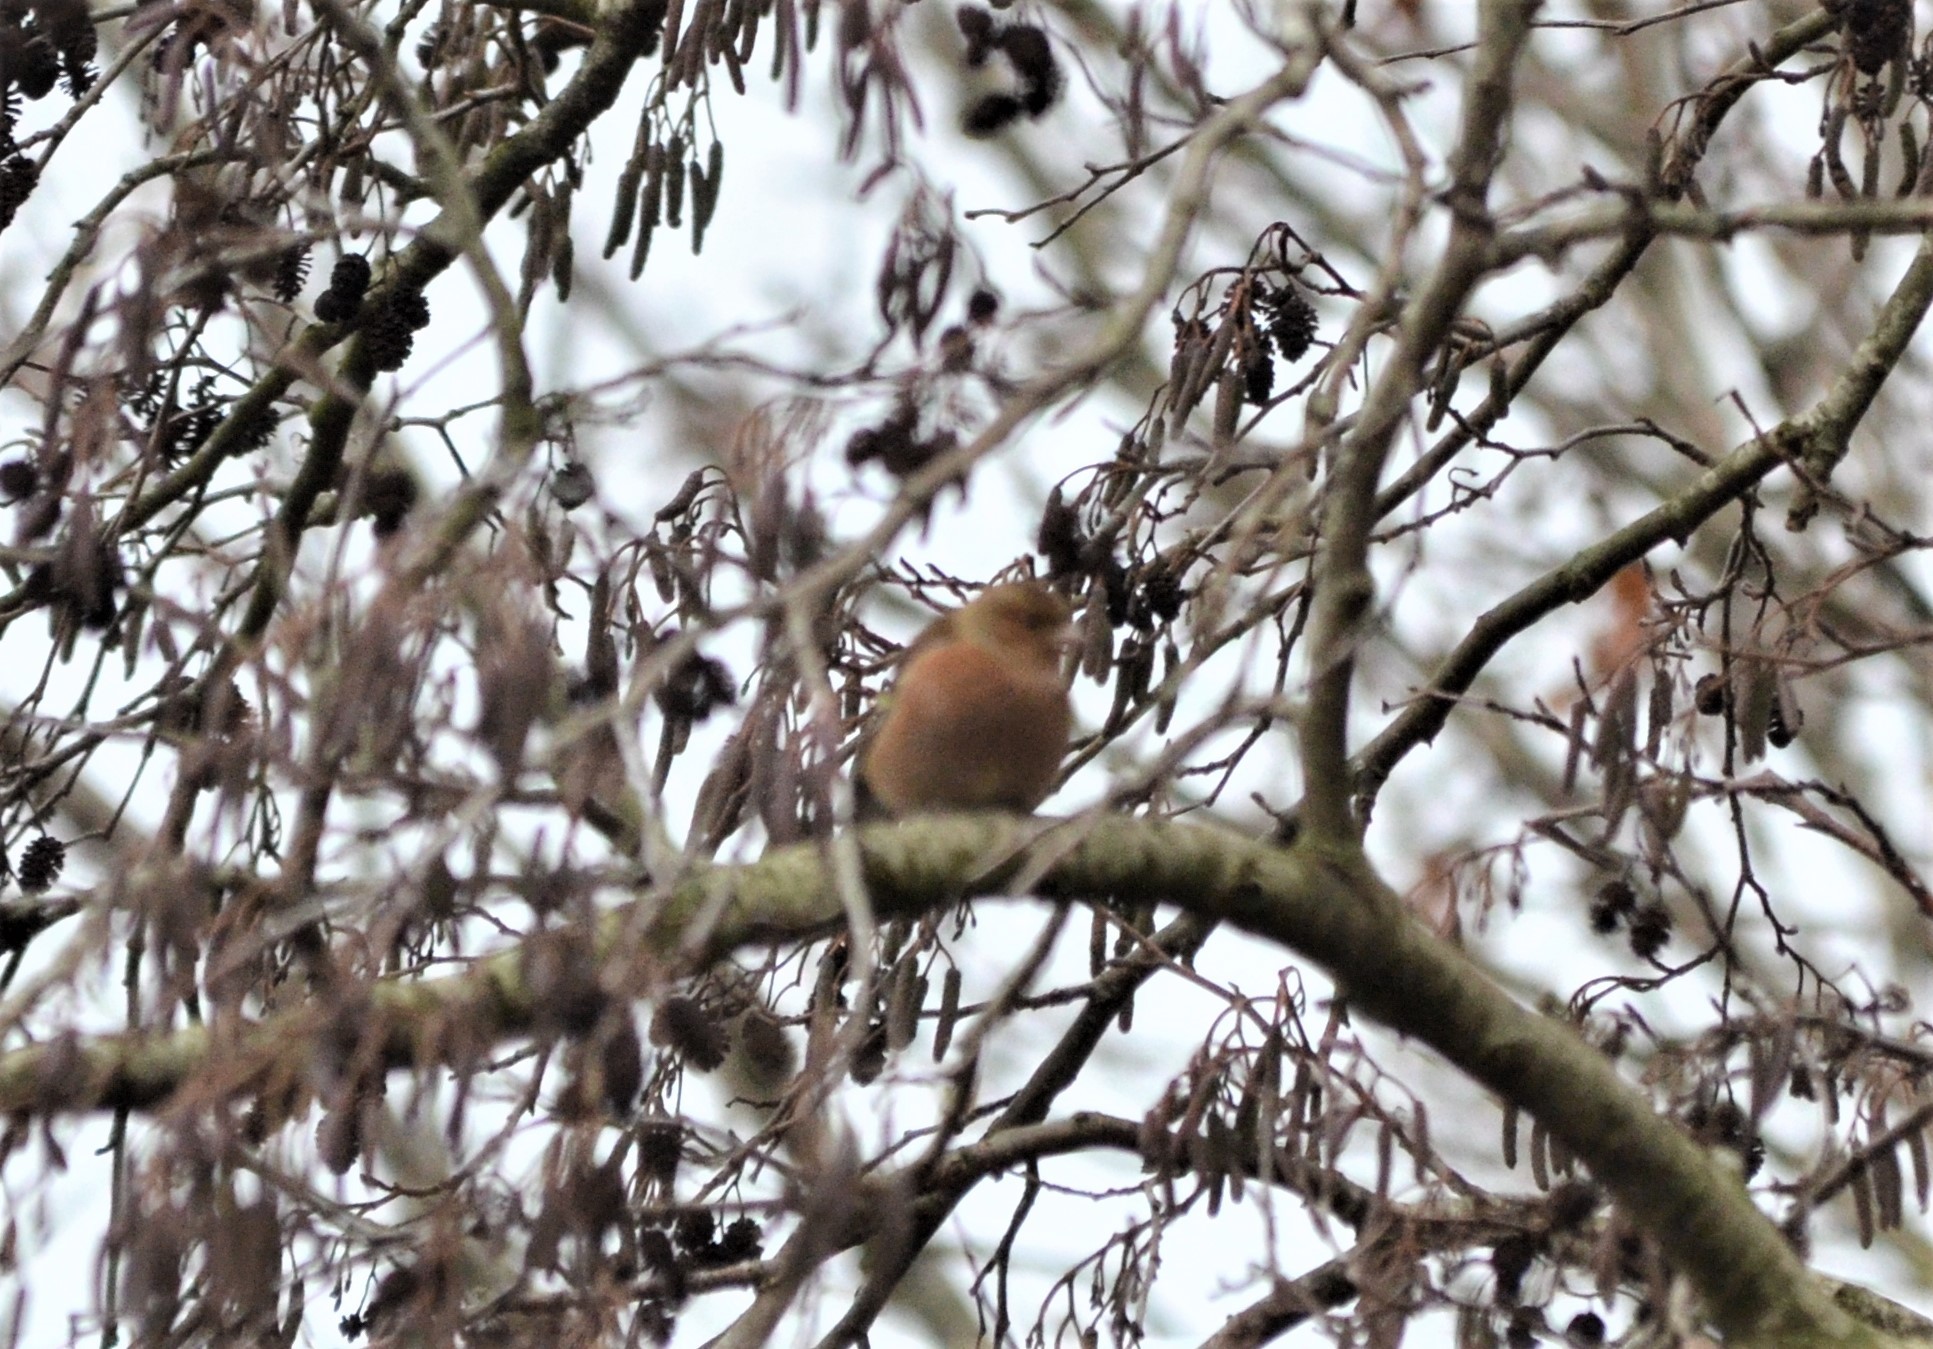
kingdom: Animalia
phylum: Chordata
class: Aves
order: Passeriformes
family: Fringillidae
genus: Fringilla
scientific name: Fringilla coelebs
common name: Common chaffinch
